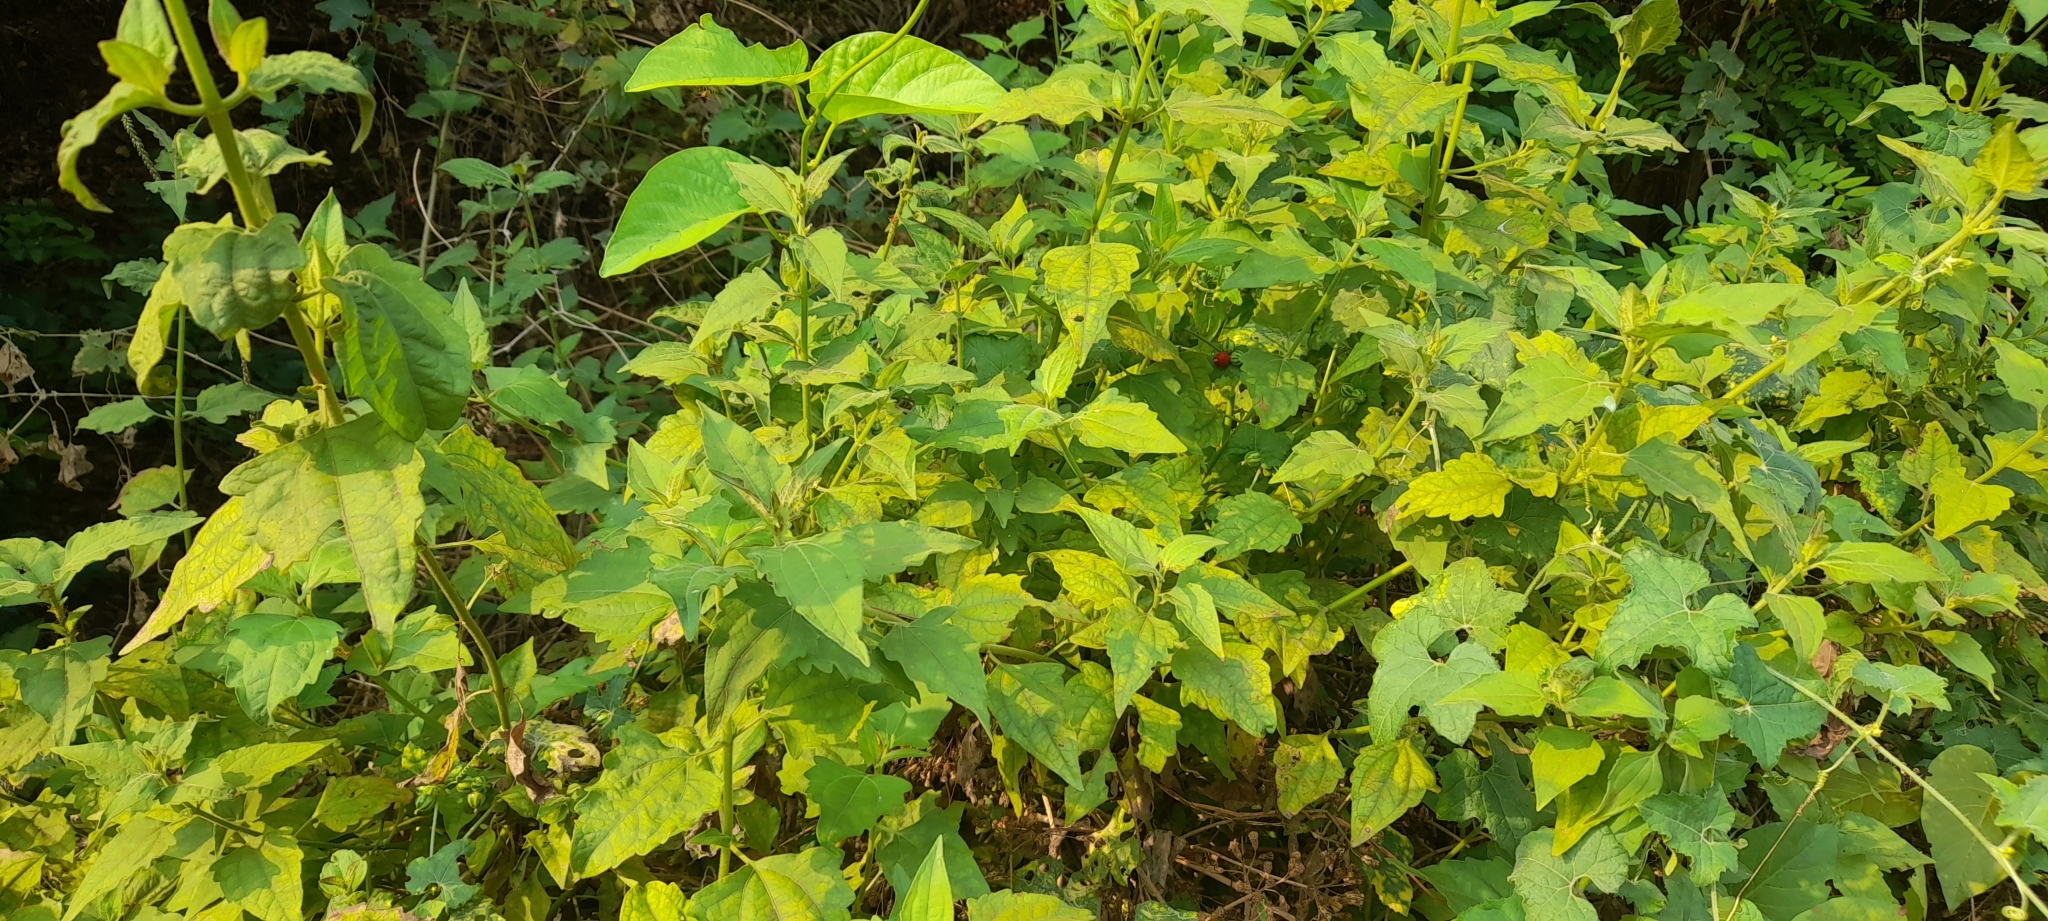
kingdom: Plantae
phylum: Tracheophyta
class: Magnoliopsida
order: Asterales
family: Asteraceae
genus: Chromolaena
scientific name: Chromolaena odorata
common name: Siamweed
